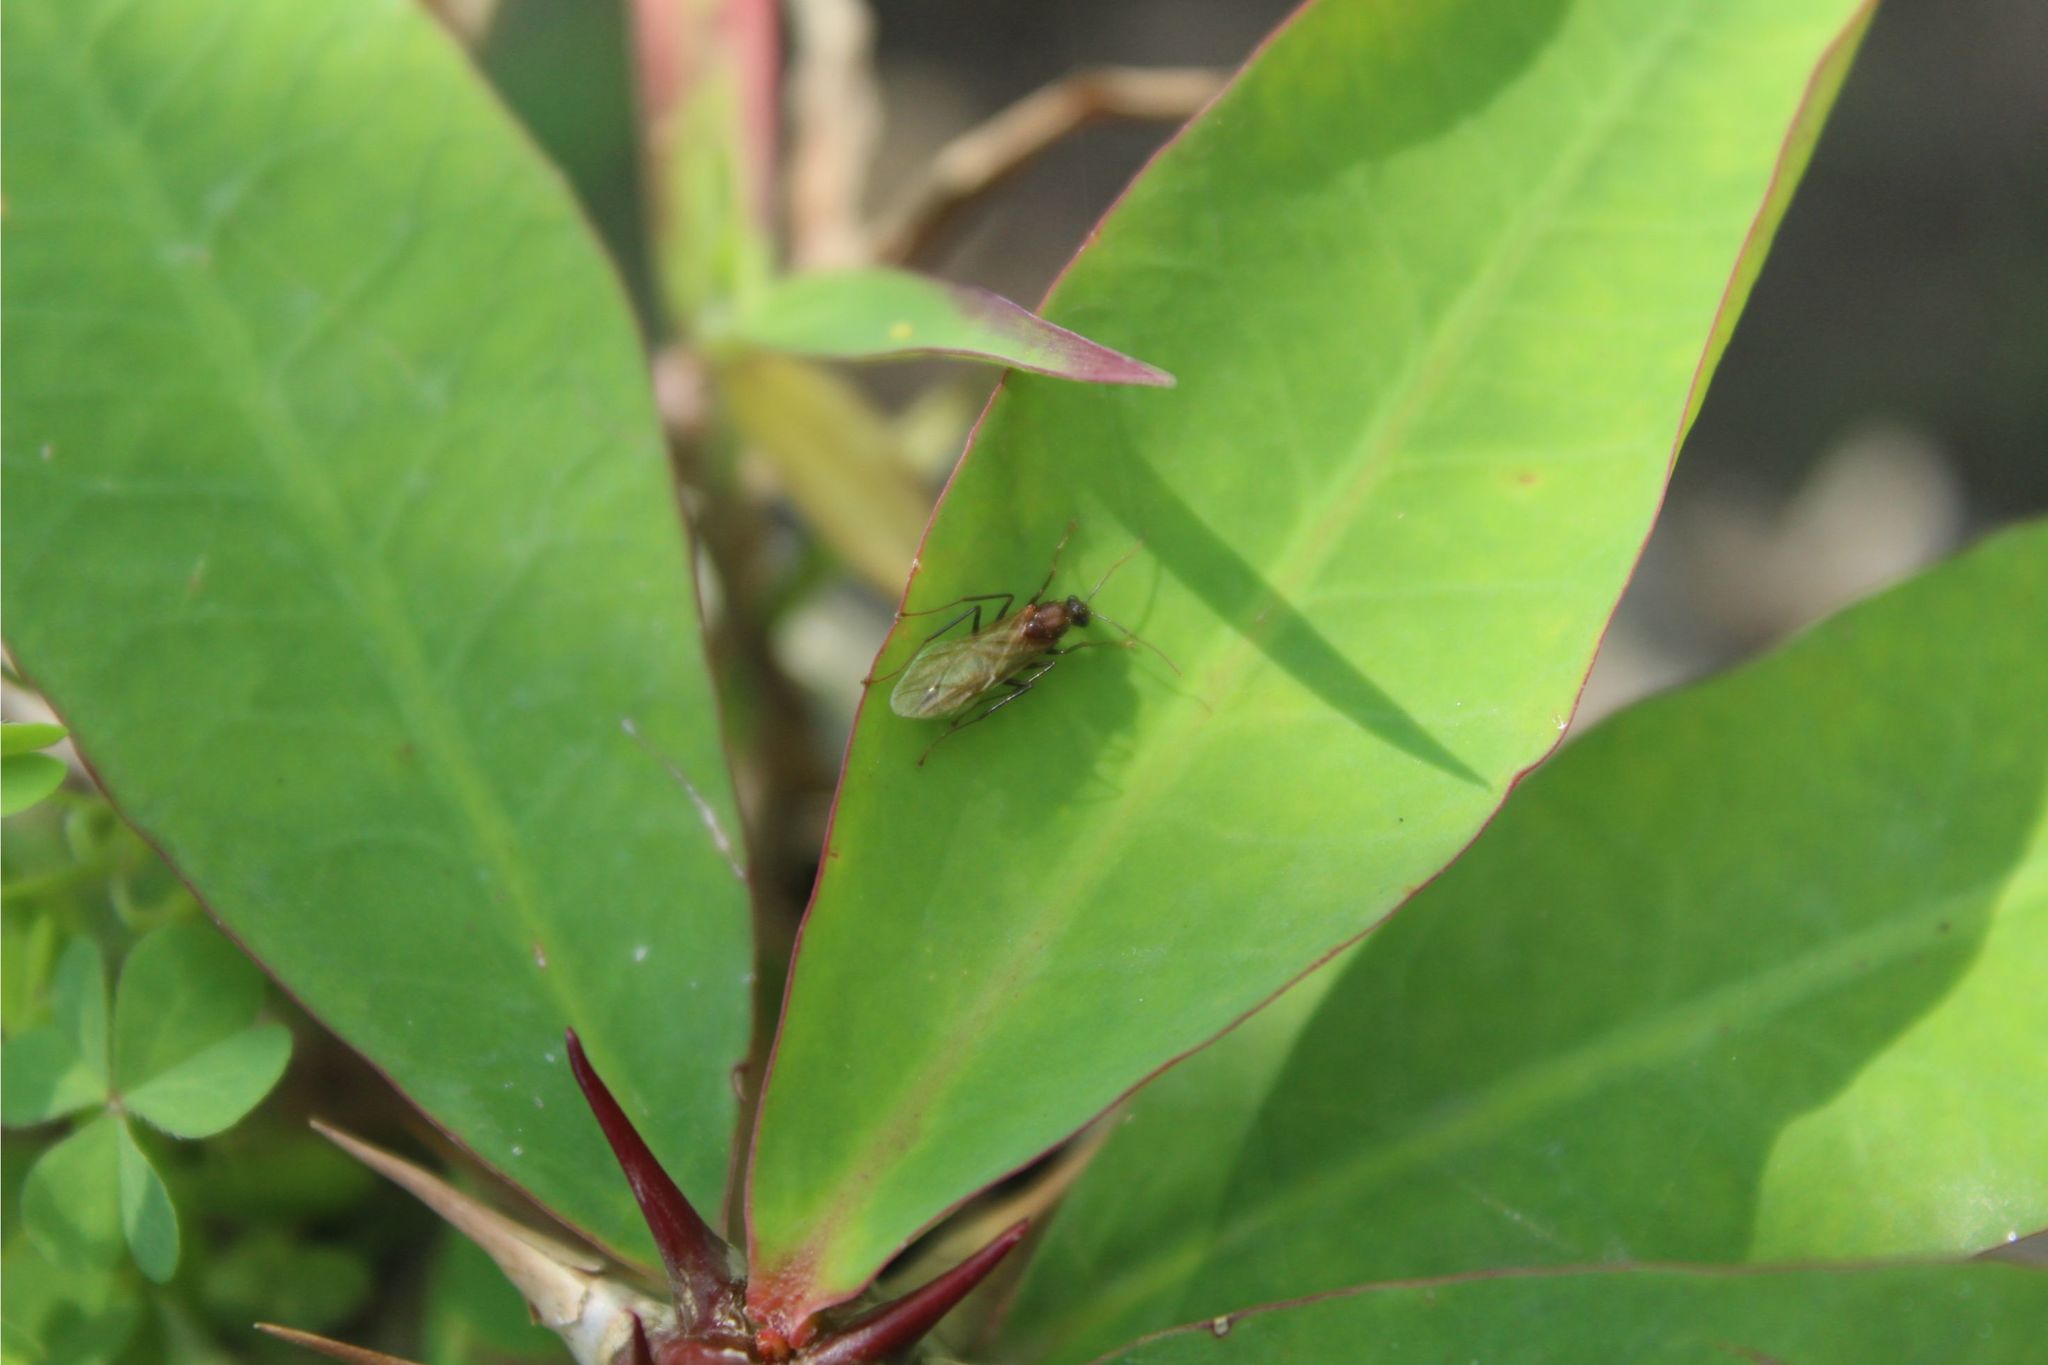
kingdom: Animalia
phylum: Arthropoda
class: Insecta
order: Hymenoptera
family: Formicidae
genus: Camponotus
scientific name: Camponotus
